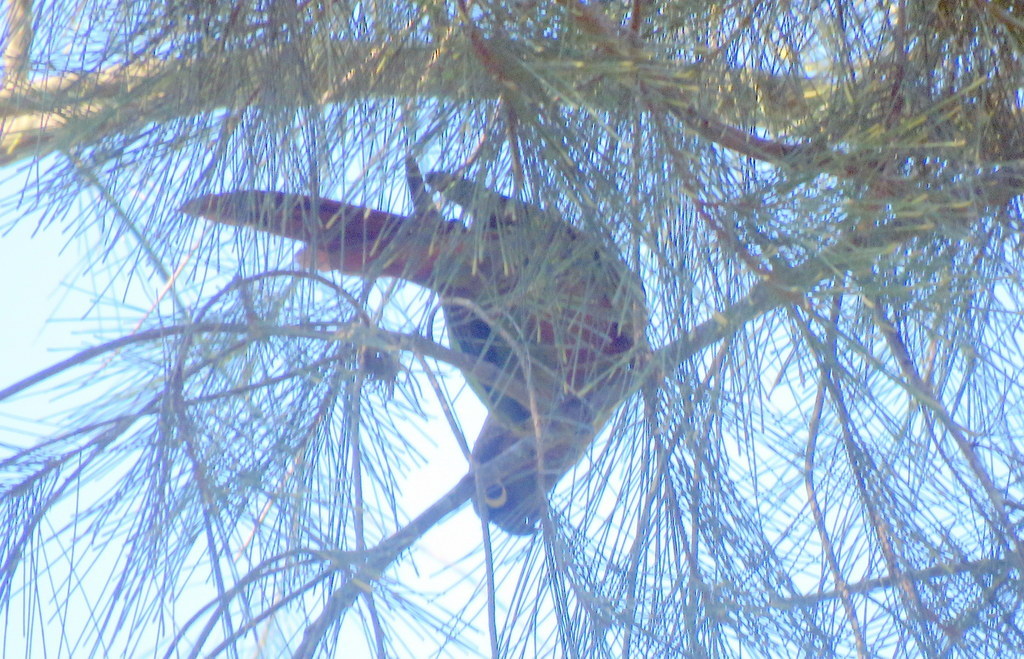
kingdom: Animalia
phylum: Chordata
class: Aves
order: Psittaciformes
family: Psittacidae
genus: Pyrrhura
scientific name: Pyrrhura molinae
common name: Green-cheeked parakeet
